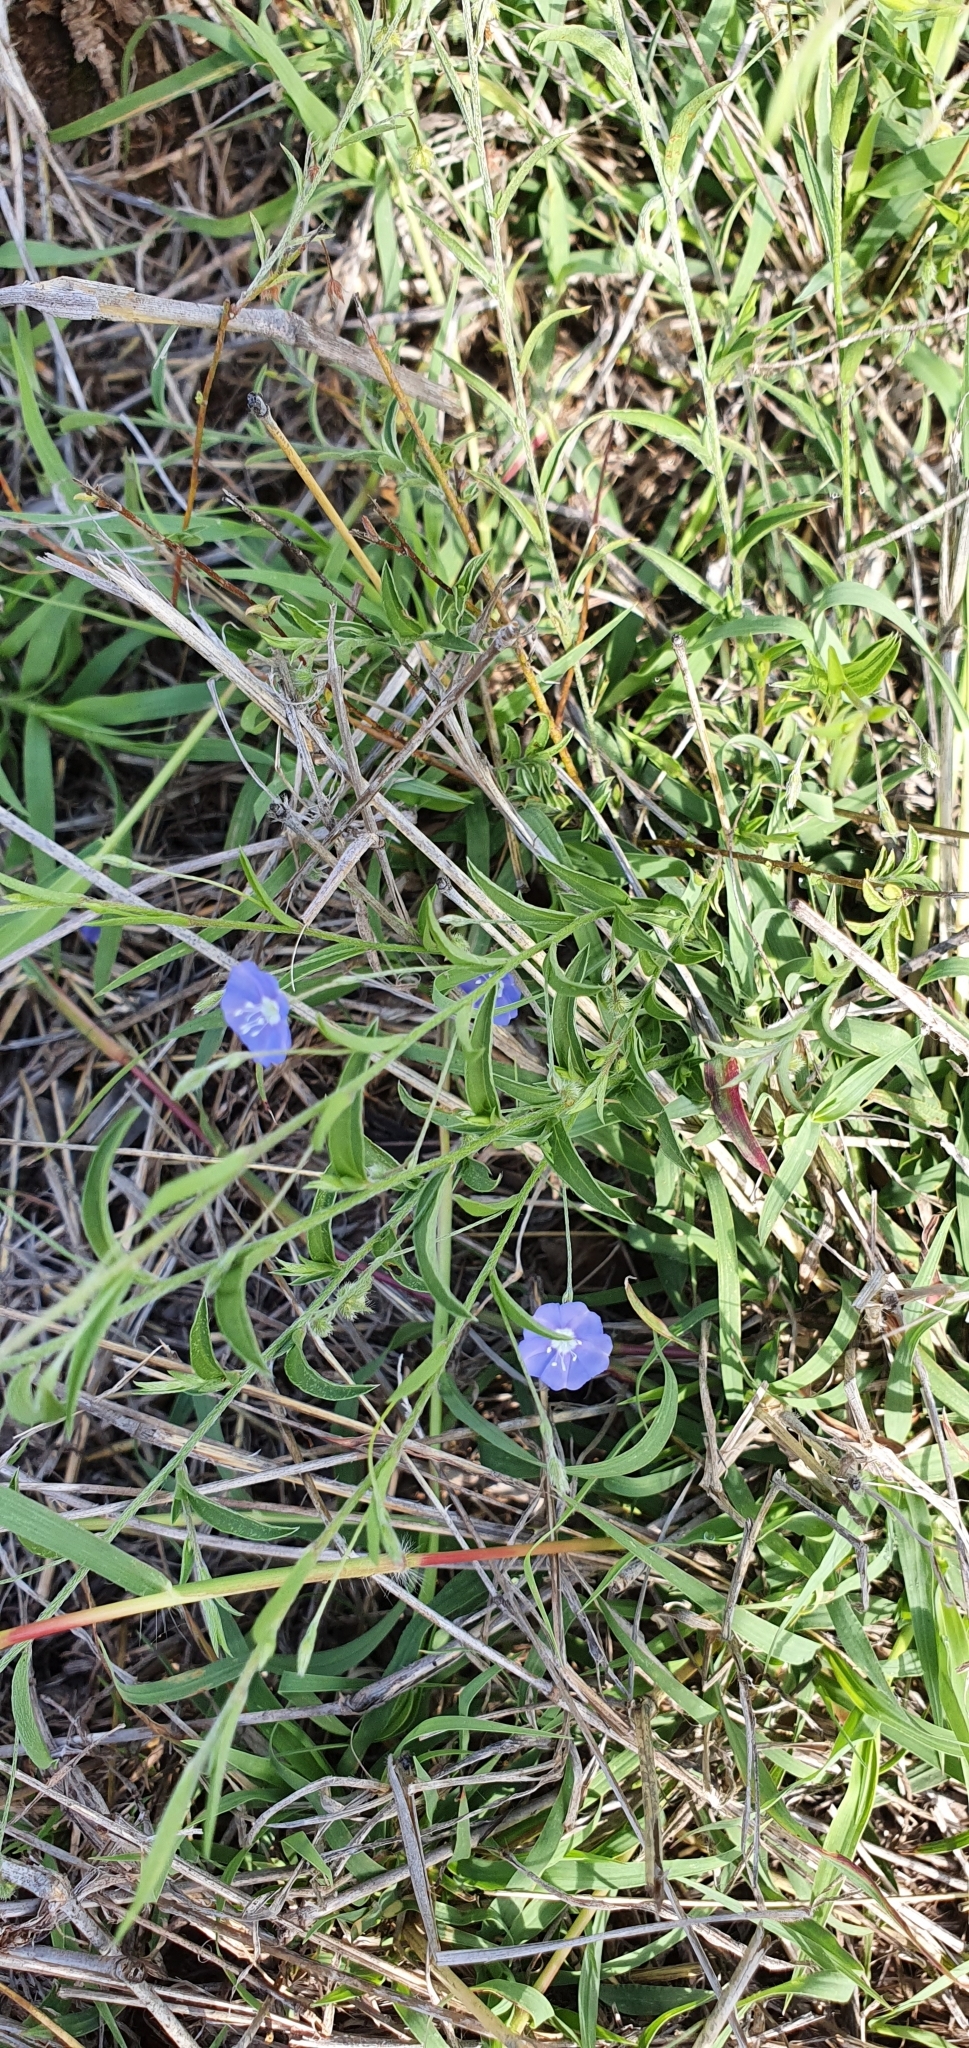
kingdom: Plantae
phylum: Tracheophyta
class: Magnoliopsida
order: Solanales
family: Convolvulaceae
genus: Evolvulus
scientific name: Evolvulus alsinoides
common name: Slender dwarf morning-glory
